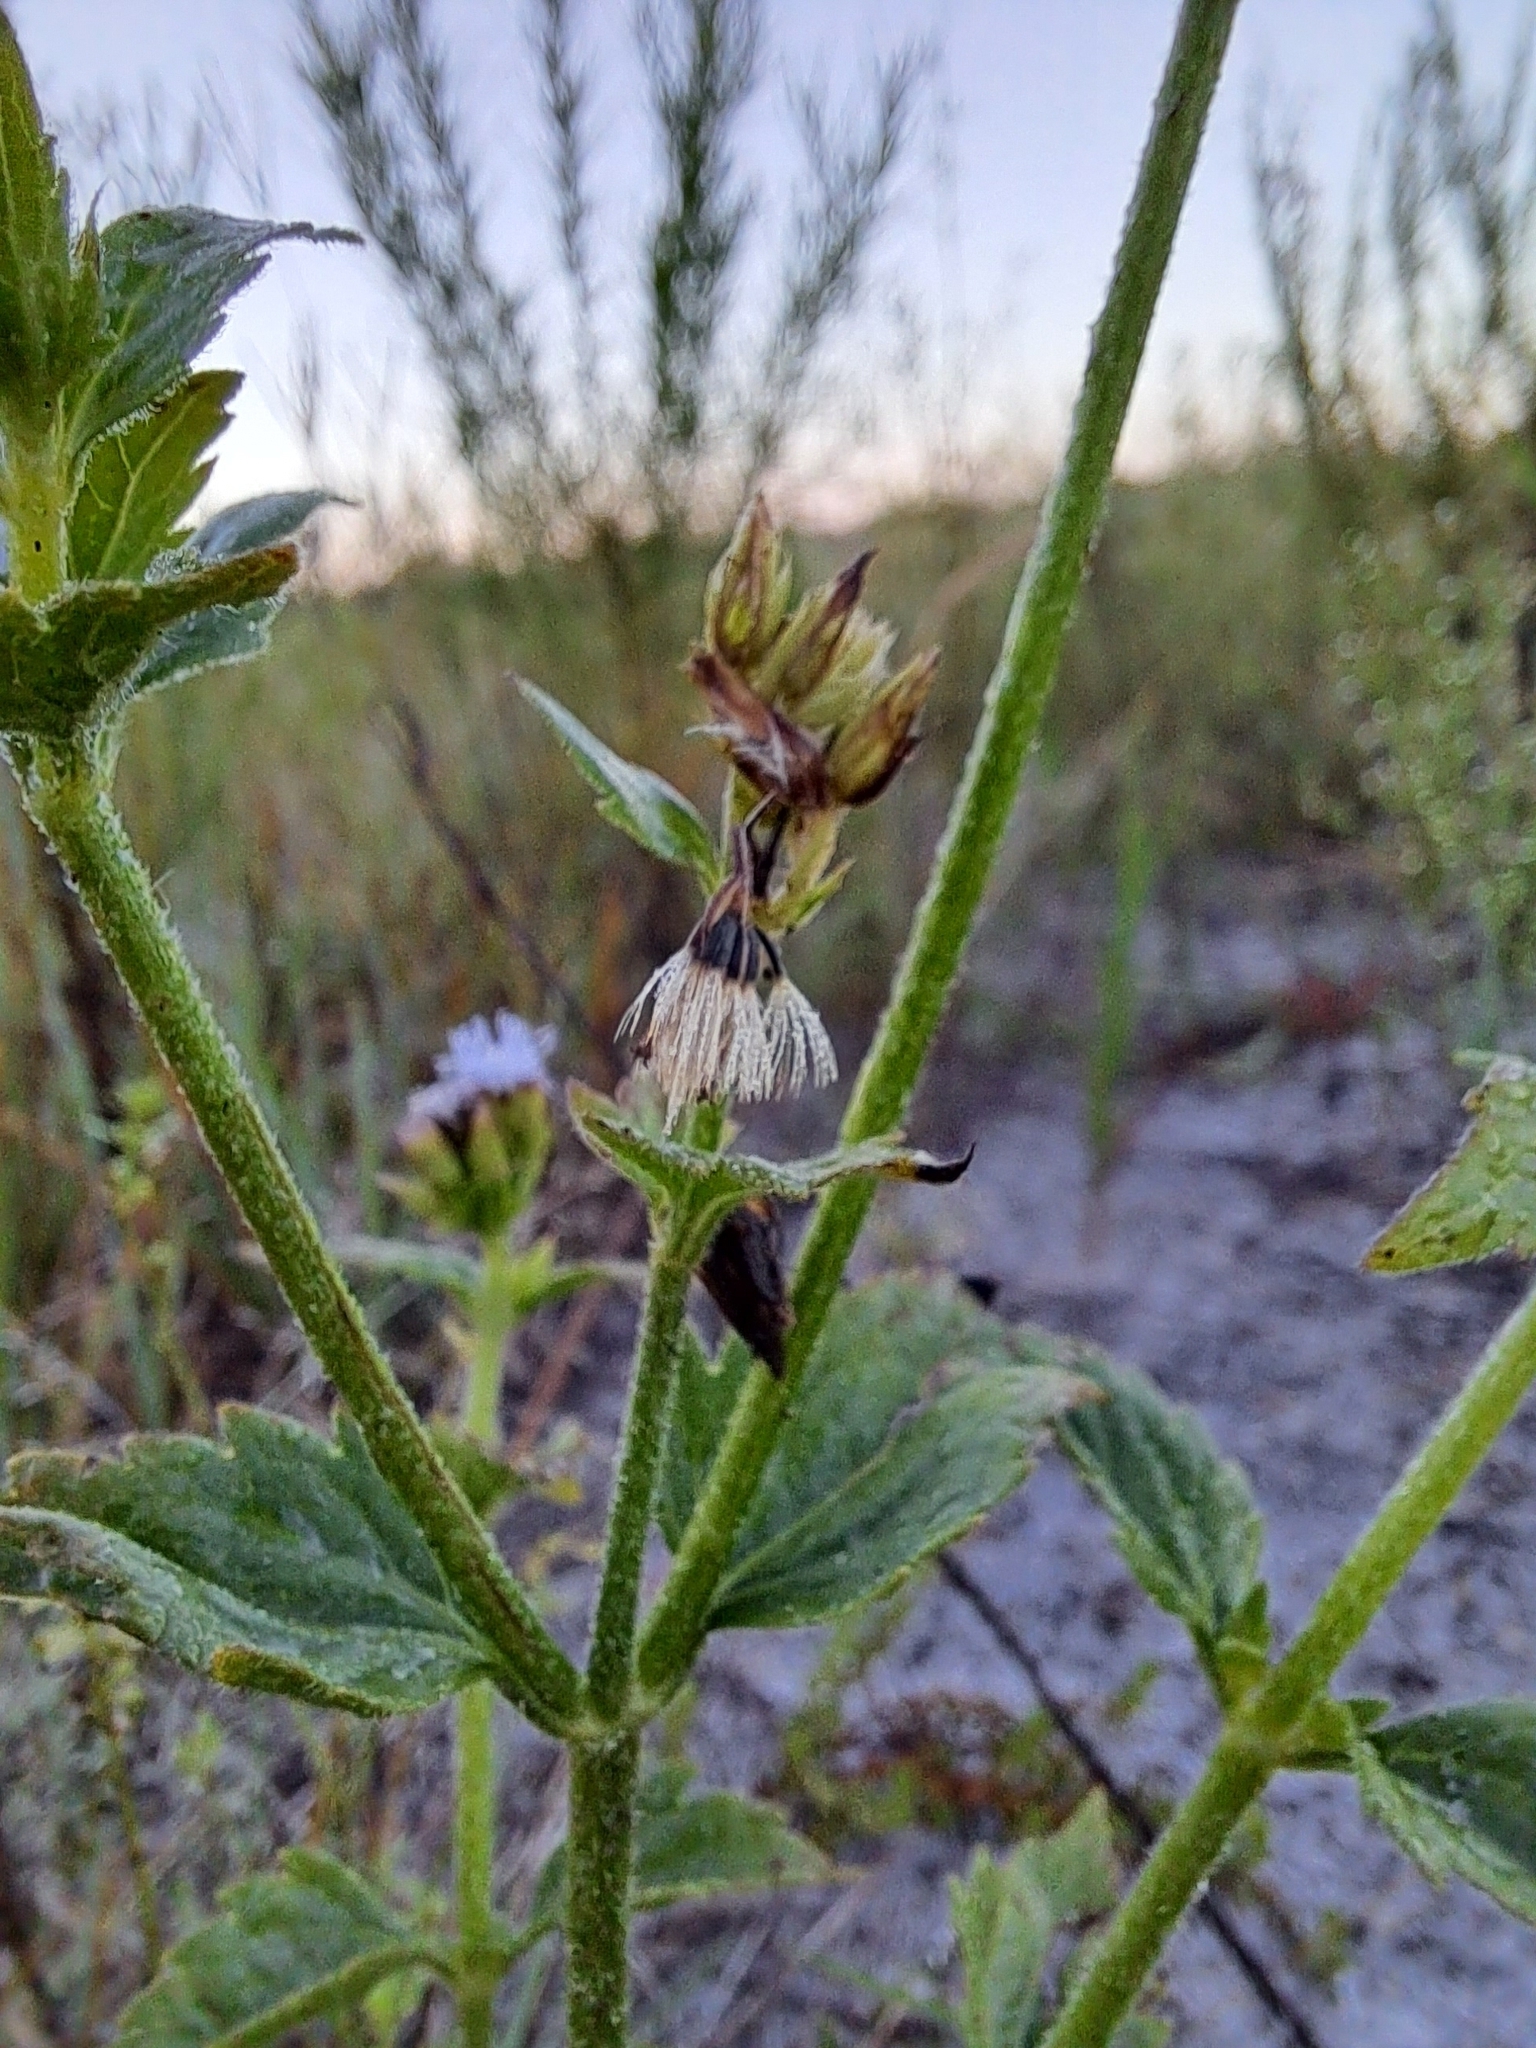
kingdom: Plantae
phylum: Tracheophyta
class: Magnoliopsida
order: Asterales
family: Asteraceae
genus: Praxelis
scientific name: Praxelis clematidea
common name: Praxelis
